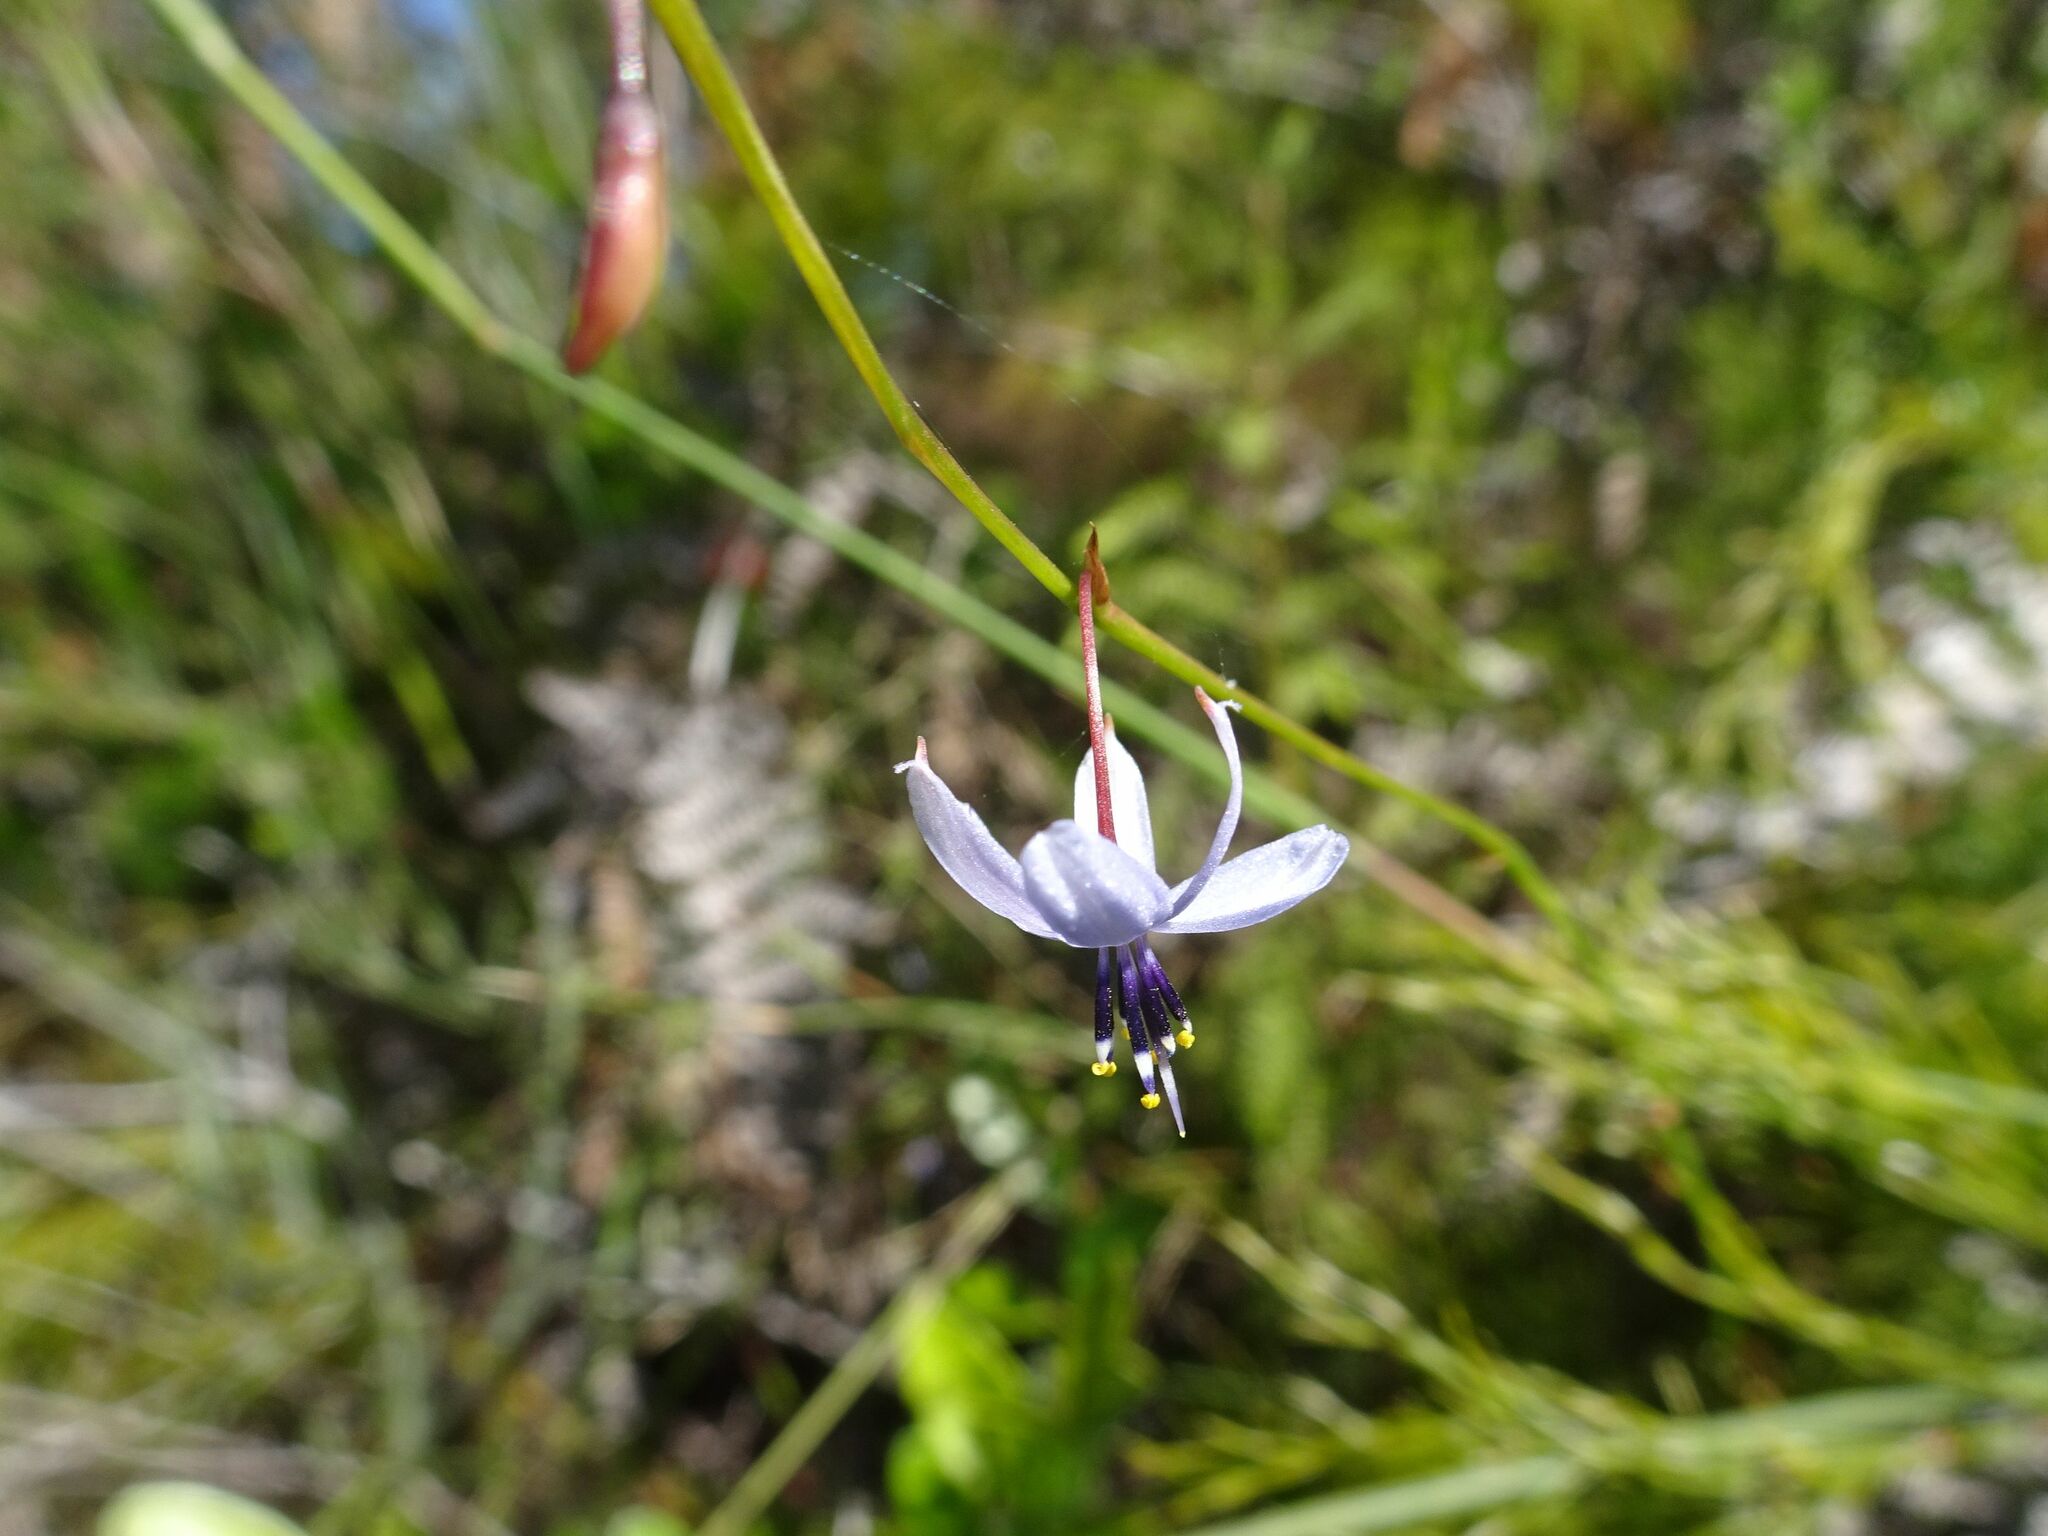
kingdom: Plantae
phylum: Tracheophyta
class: Liliopsida
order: Asparagales
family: Asphodelaceae
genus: Caesia
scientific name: Caesia contorta
